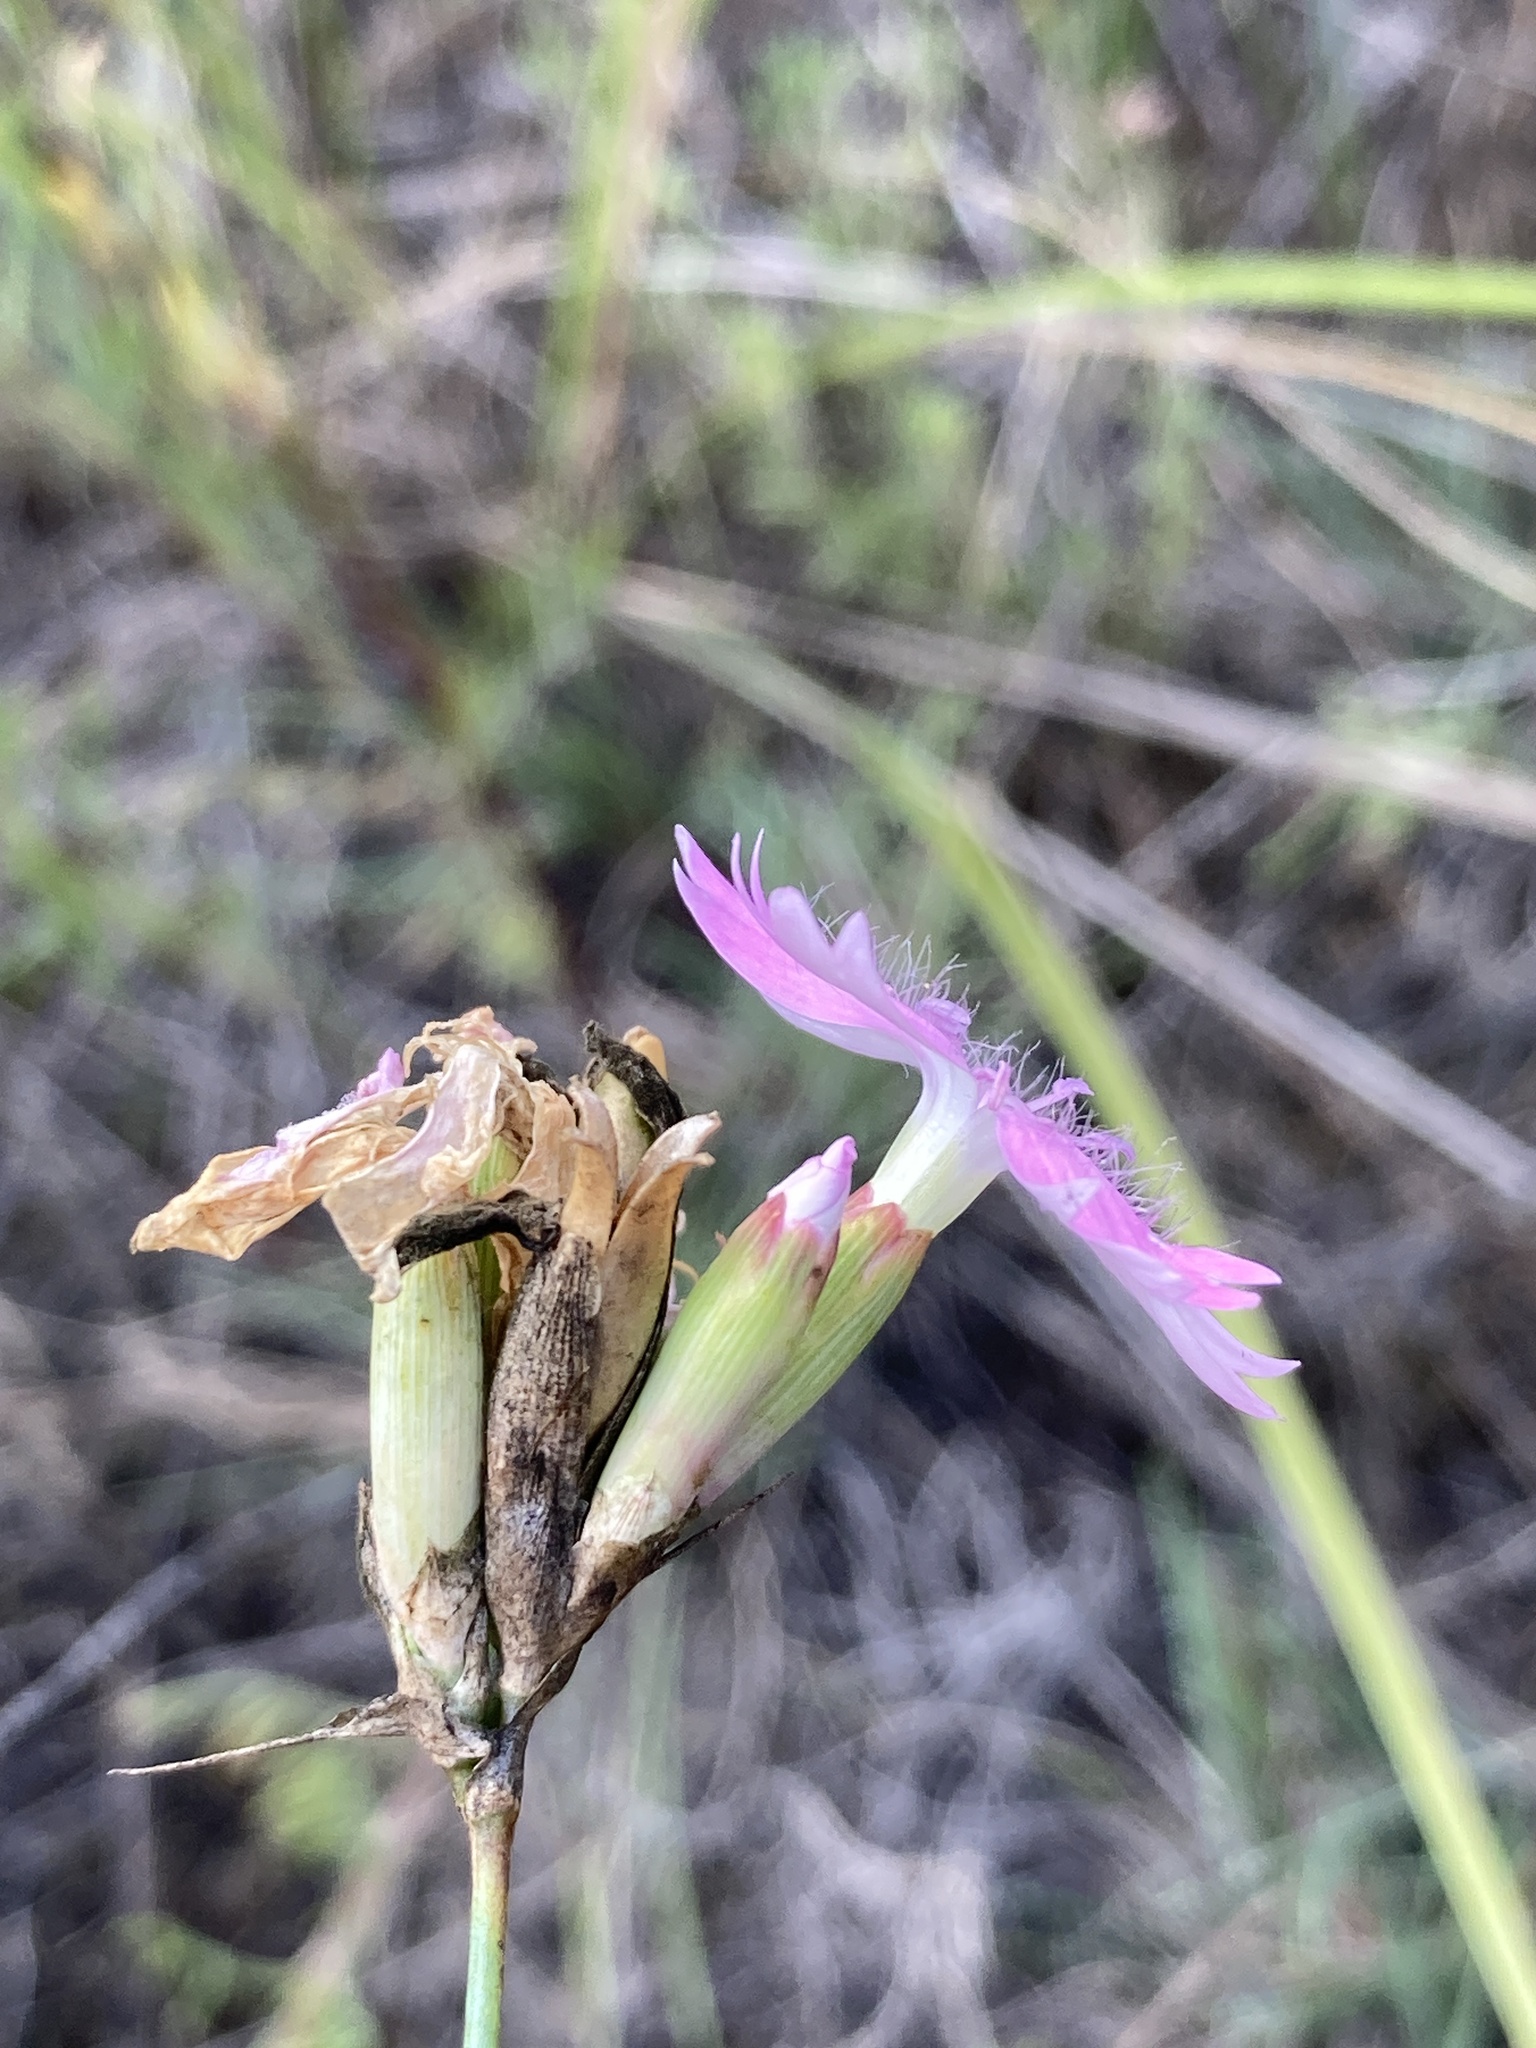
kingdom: Plantae
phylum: Tracheophyta
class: Magnoliopsida
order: Caryophyllales
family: Caryophyllaceae
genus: Dianthus
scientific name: Dianthus polymorphus
